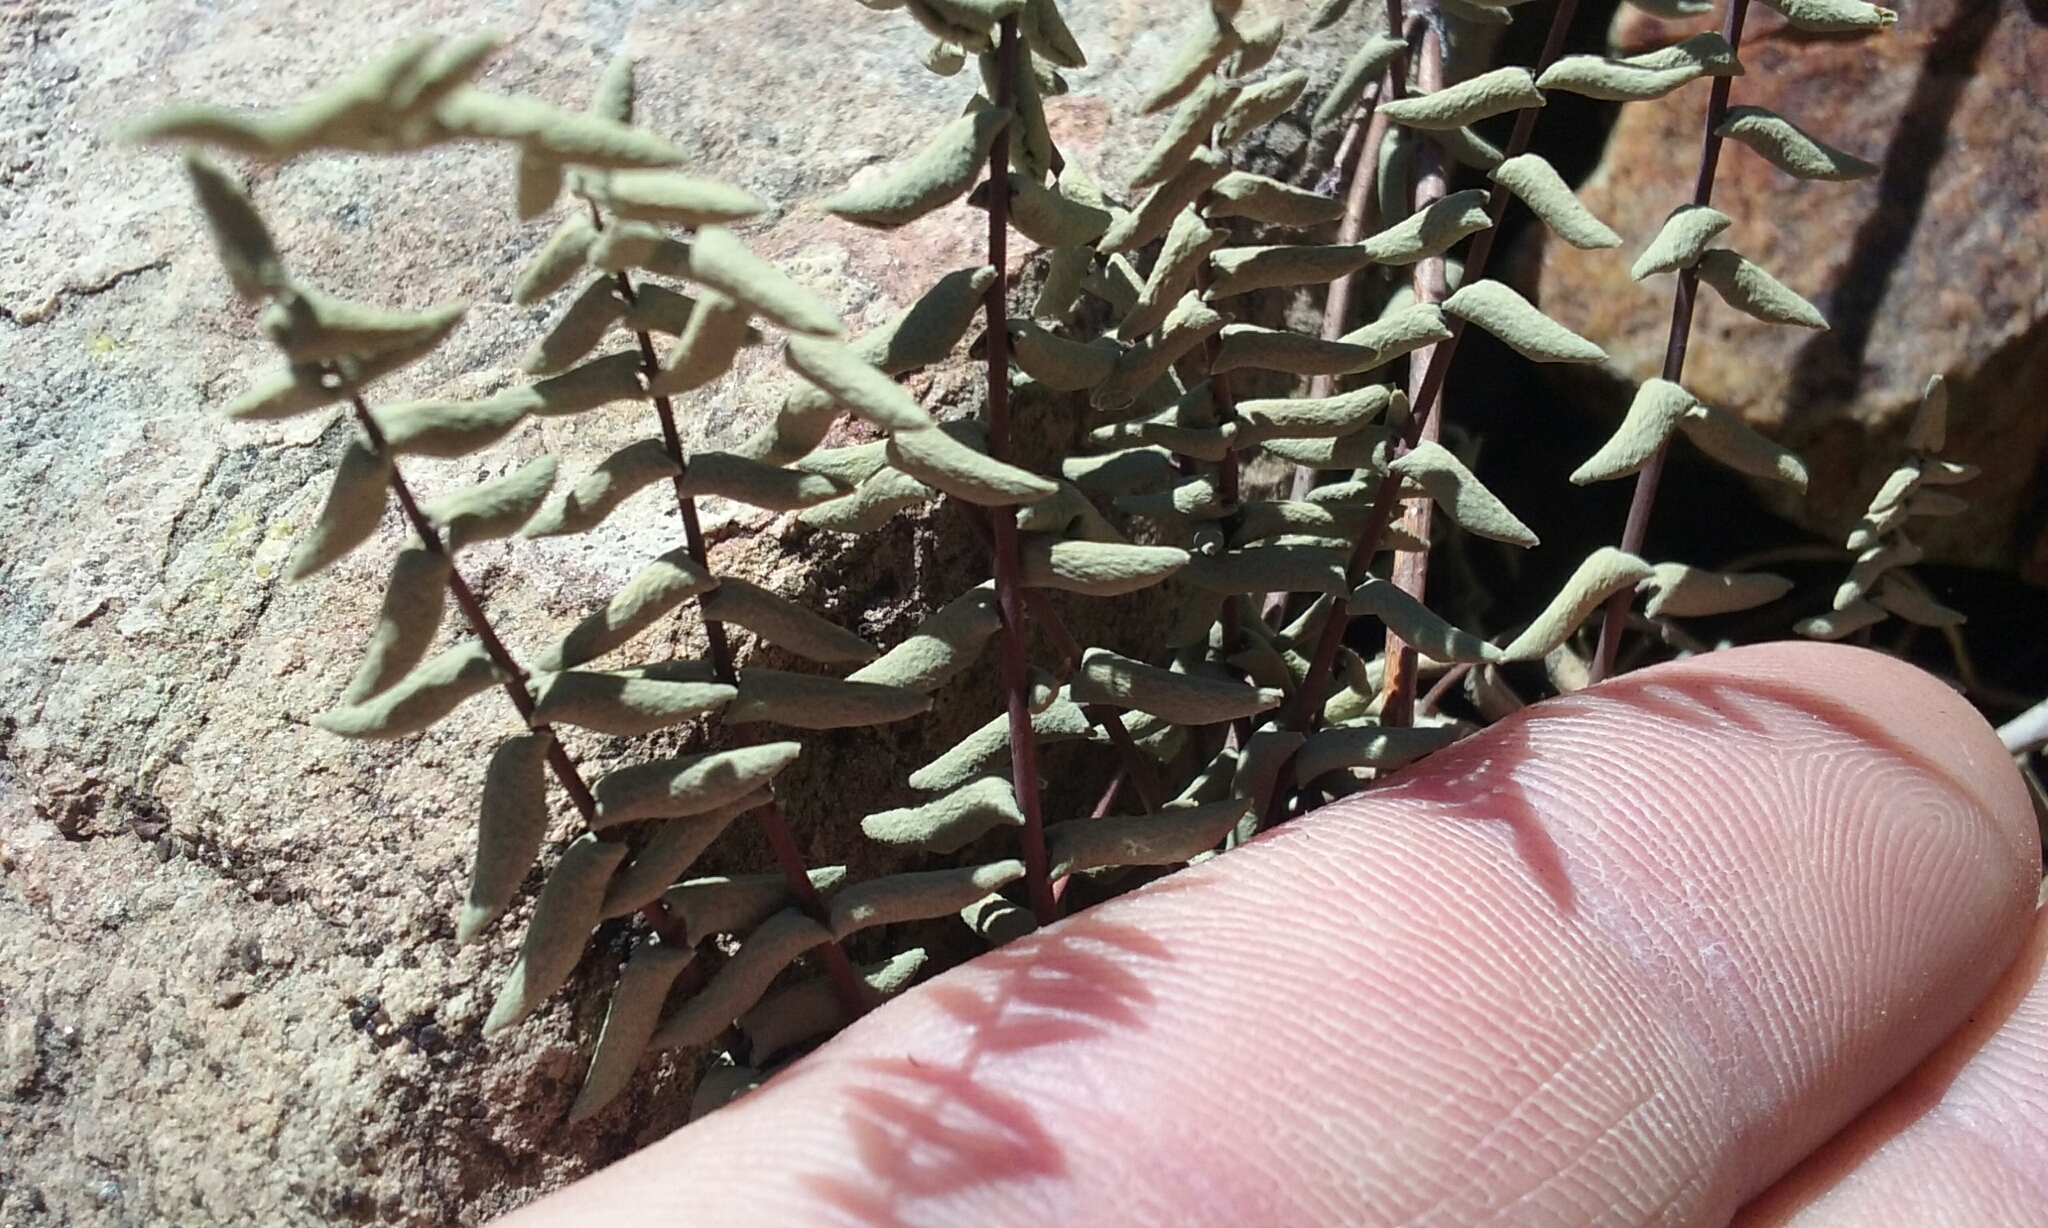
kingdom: Plantae
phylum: Tracheophyta
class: Polypodiopsida
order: Polypodiales
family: Pteridaceae
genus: Pellaea
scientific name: Pellaea bridgesii
